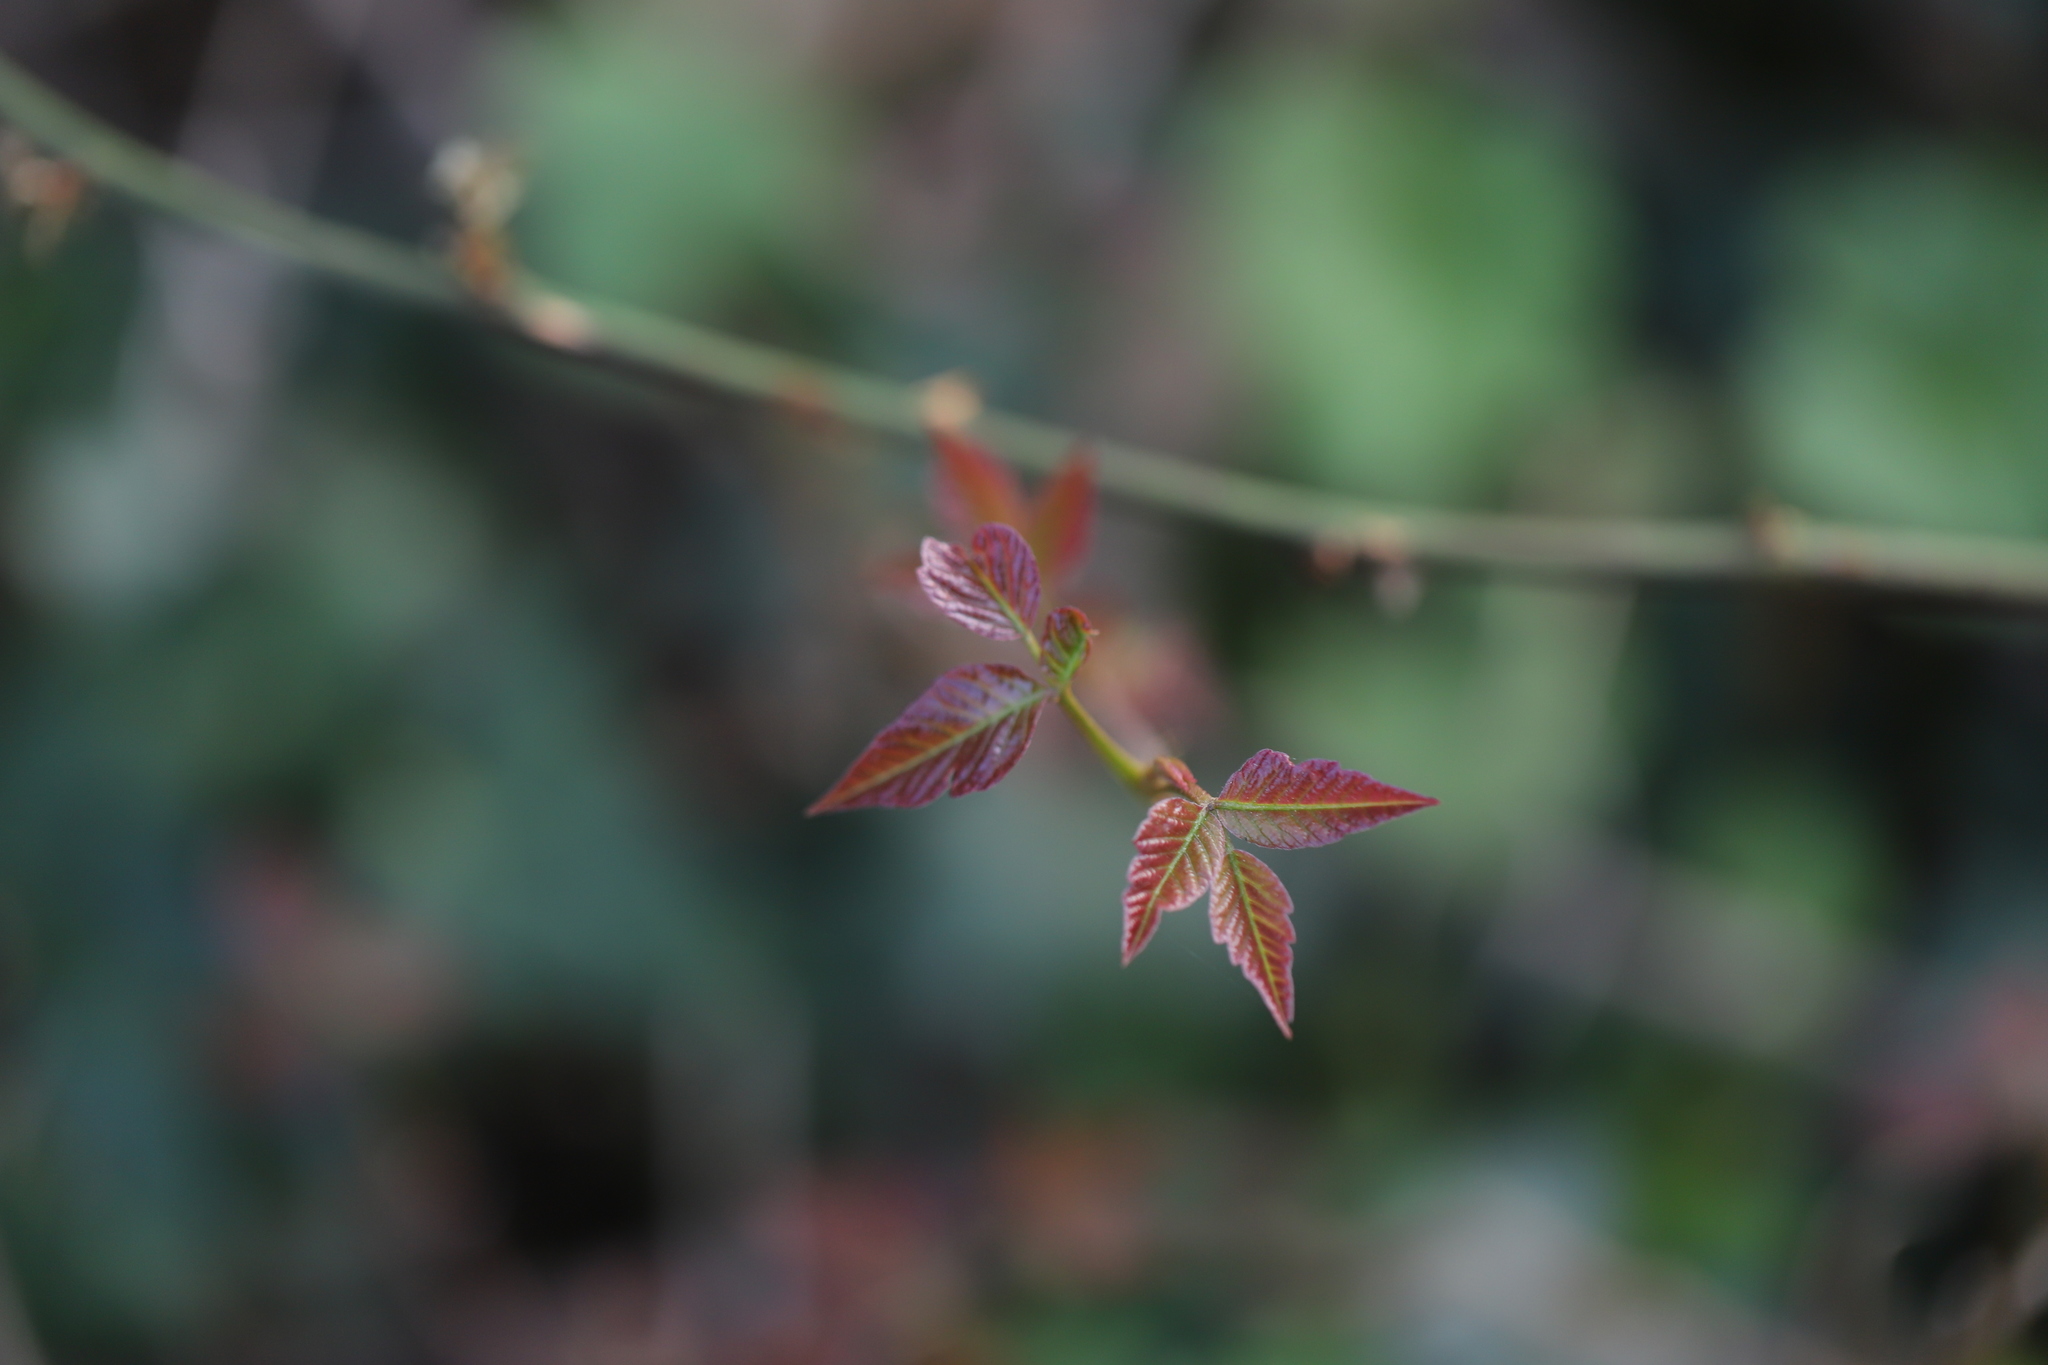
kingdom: Plantae
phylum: Tracheophyta
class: Magnoliopsida
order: Sapindales
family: Anacardiaceae
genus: Toxicodendron
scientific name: Toxicodendron radicans
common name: Poison ivy
